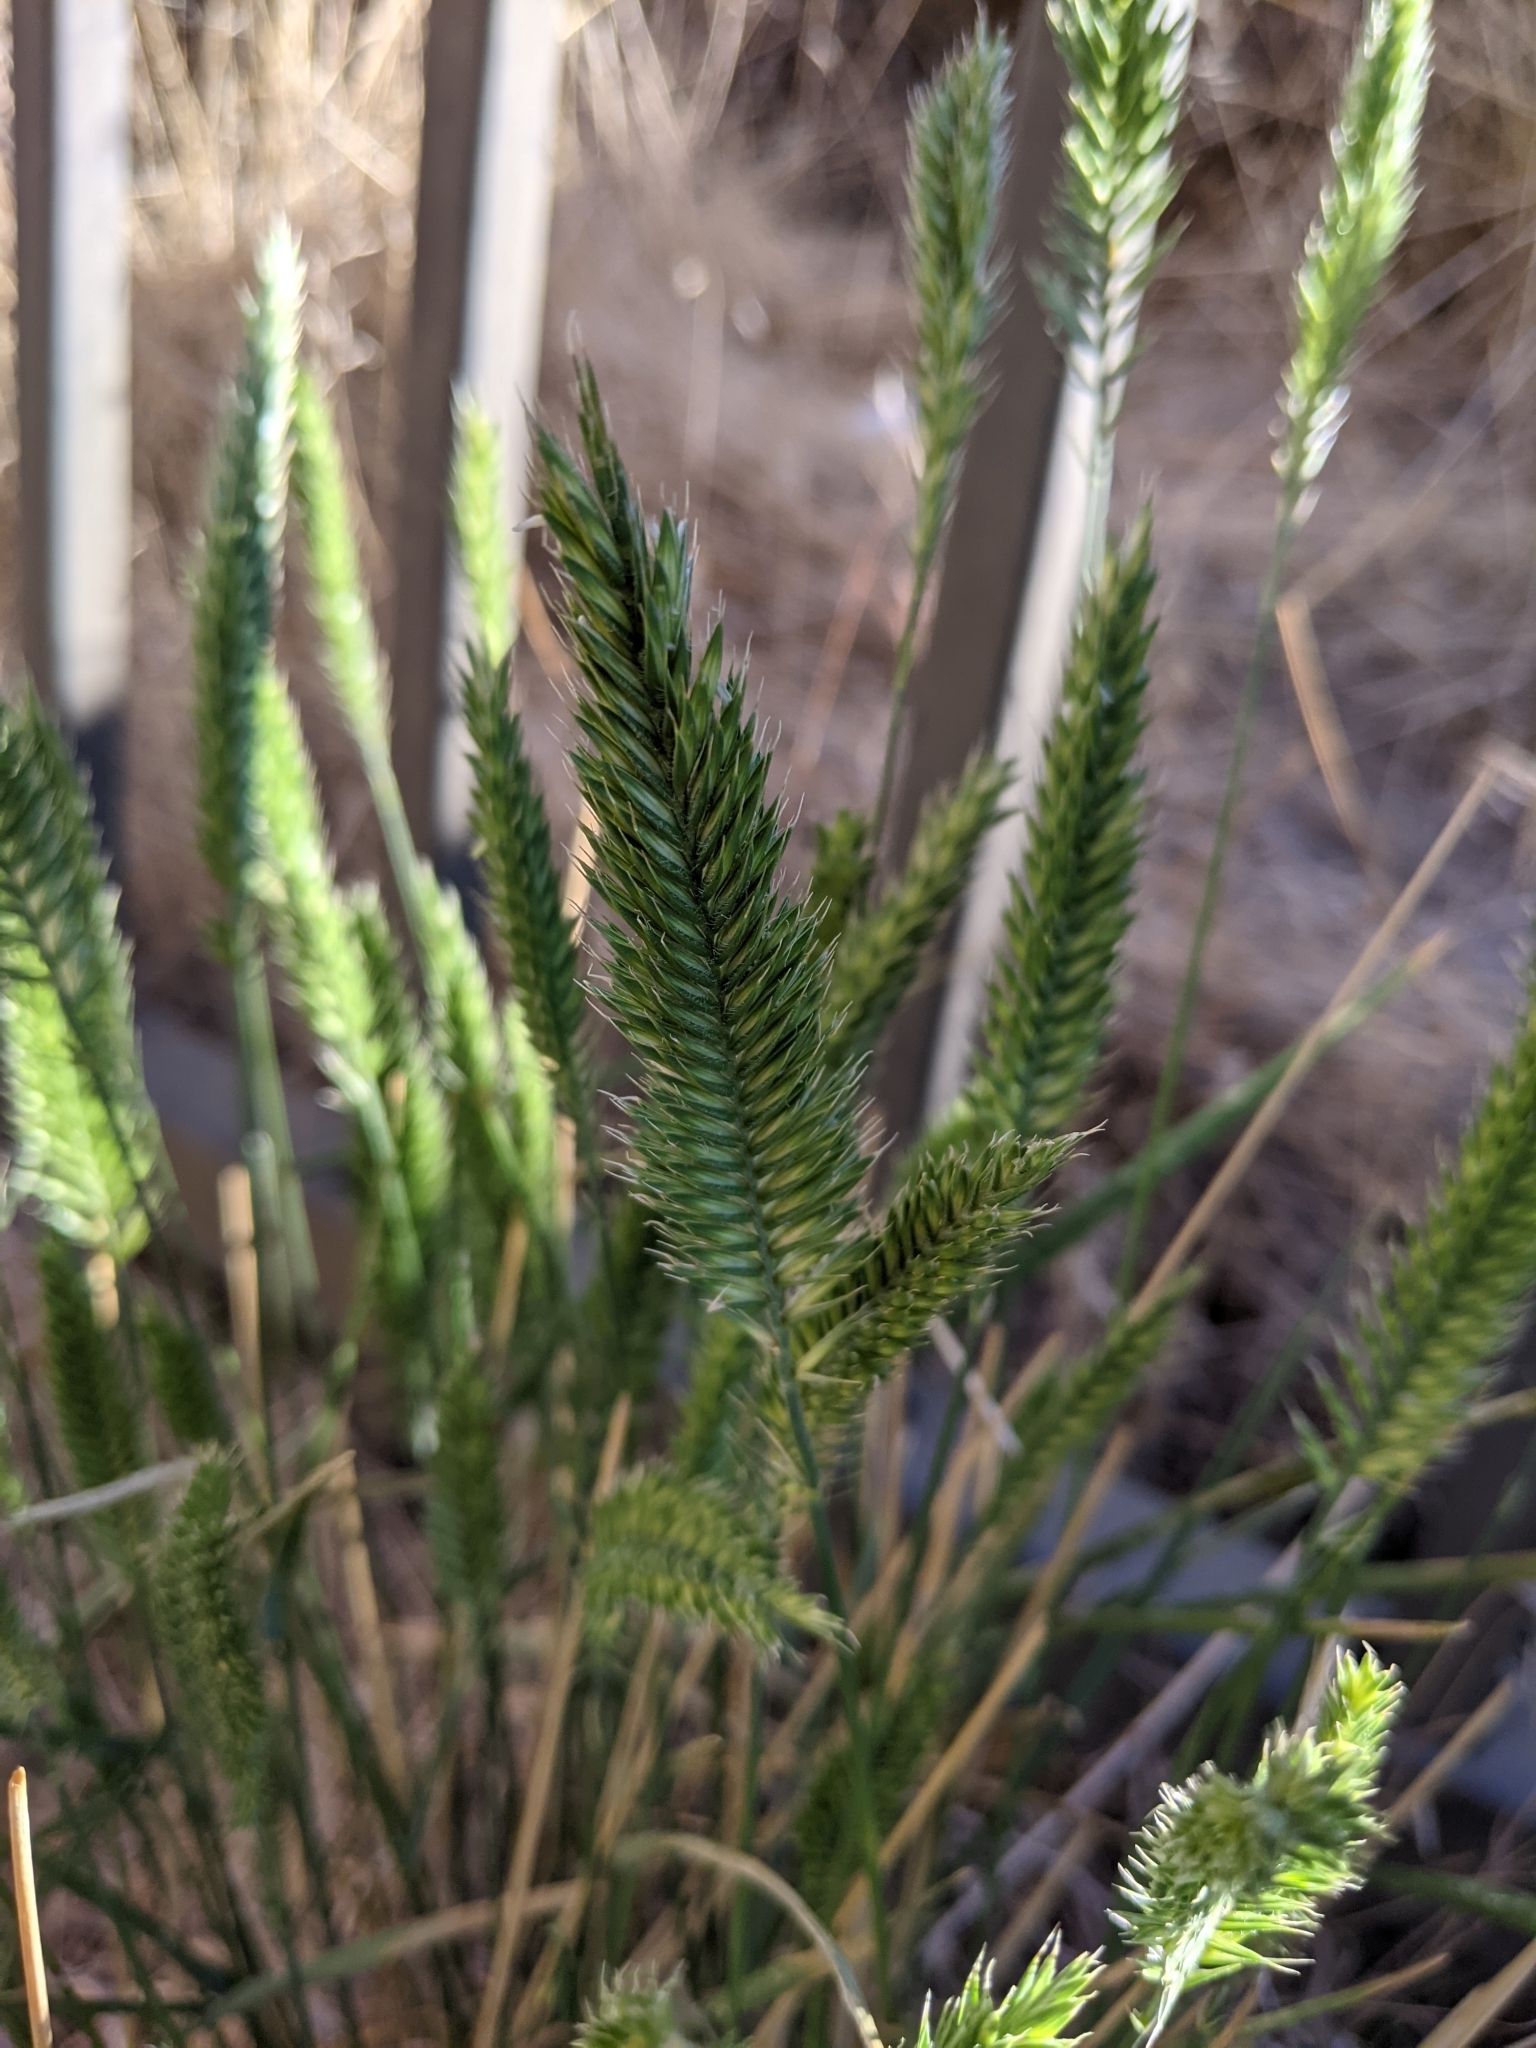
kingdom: Plantae
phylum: Tracheophyta
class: Liliopsida
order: Poales
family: Poaceae
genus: Agropyron
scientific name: Agropyron cristatum
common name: Crested wheatgrass
